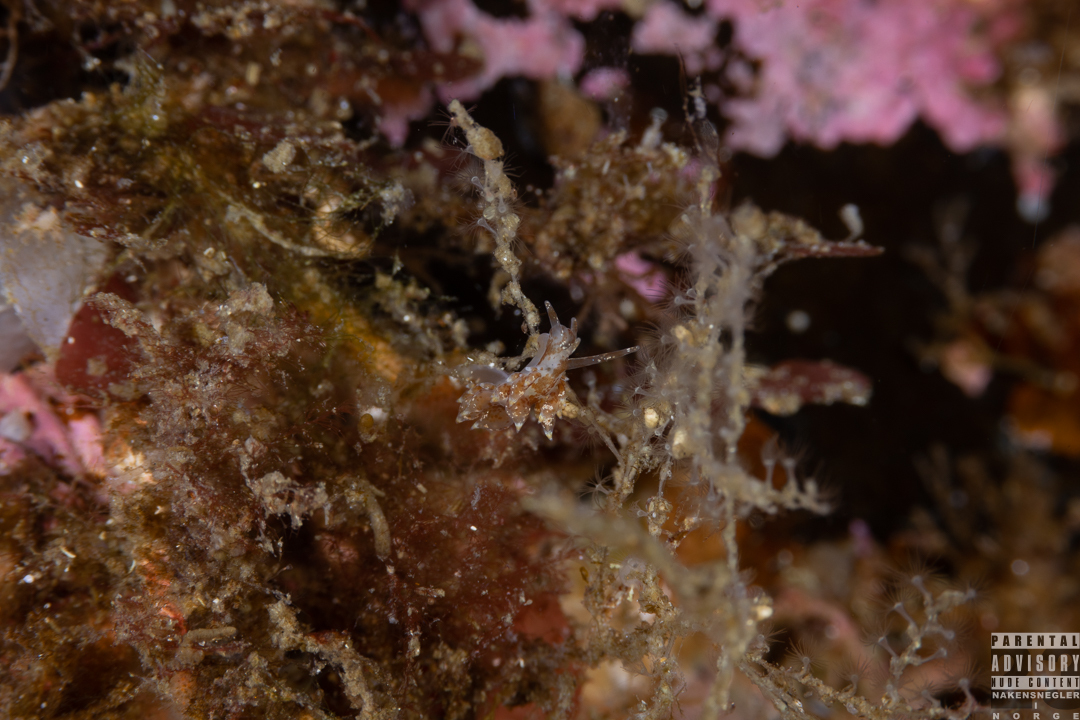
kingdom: Animalia
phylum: Mollusca
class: Gastropoda
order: Nudibranchia
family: Eubranchidae
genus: Amphorina
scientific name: Amphorina pallida
